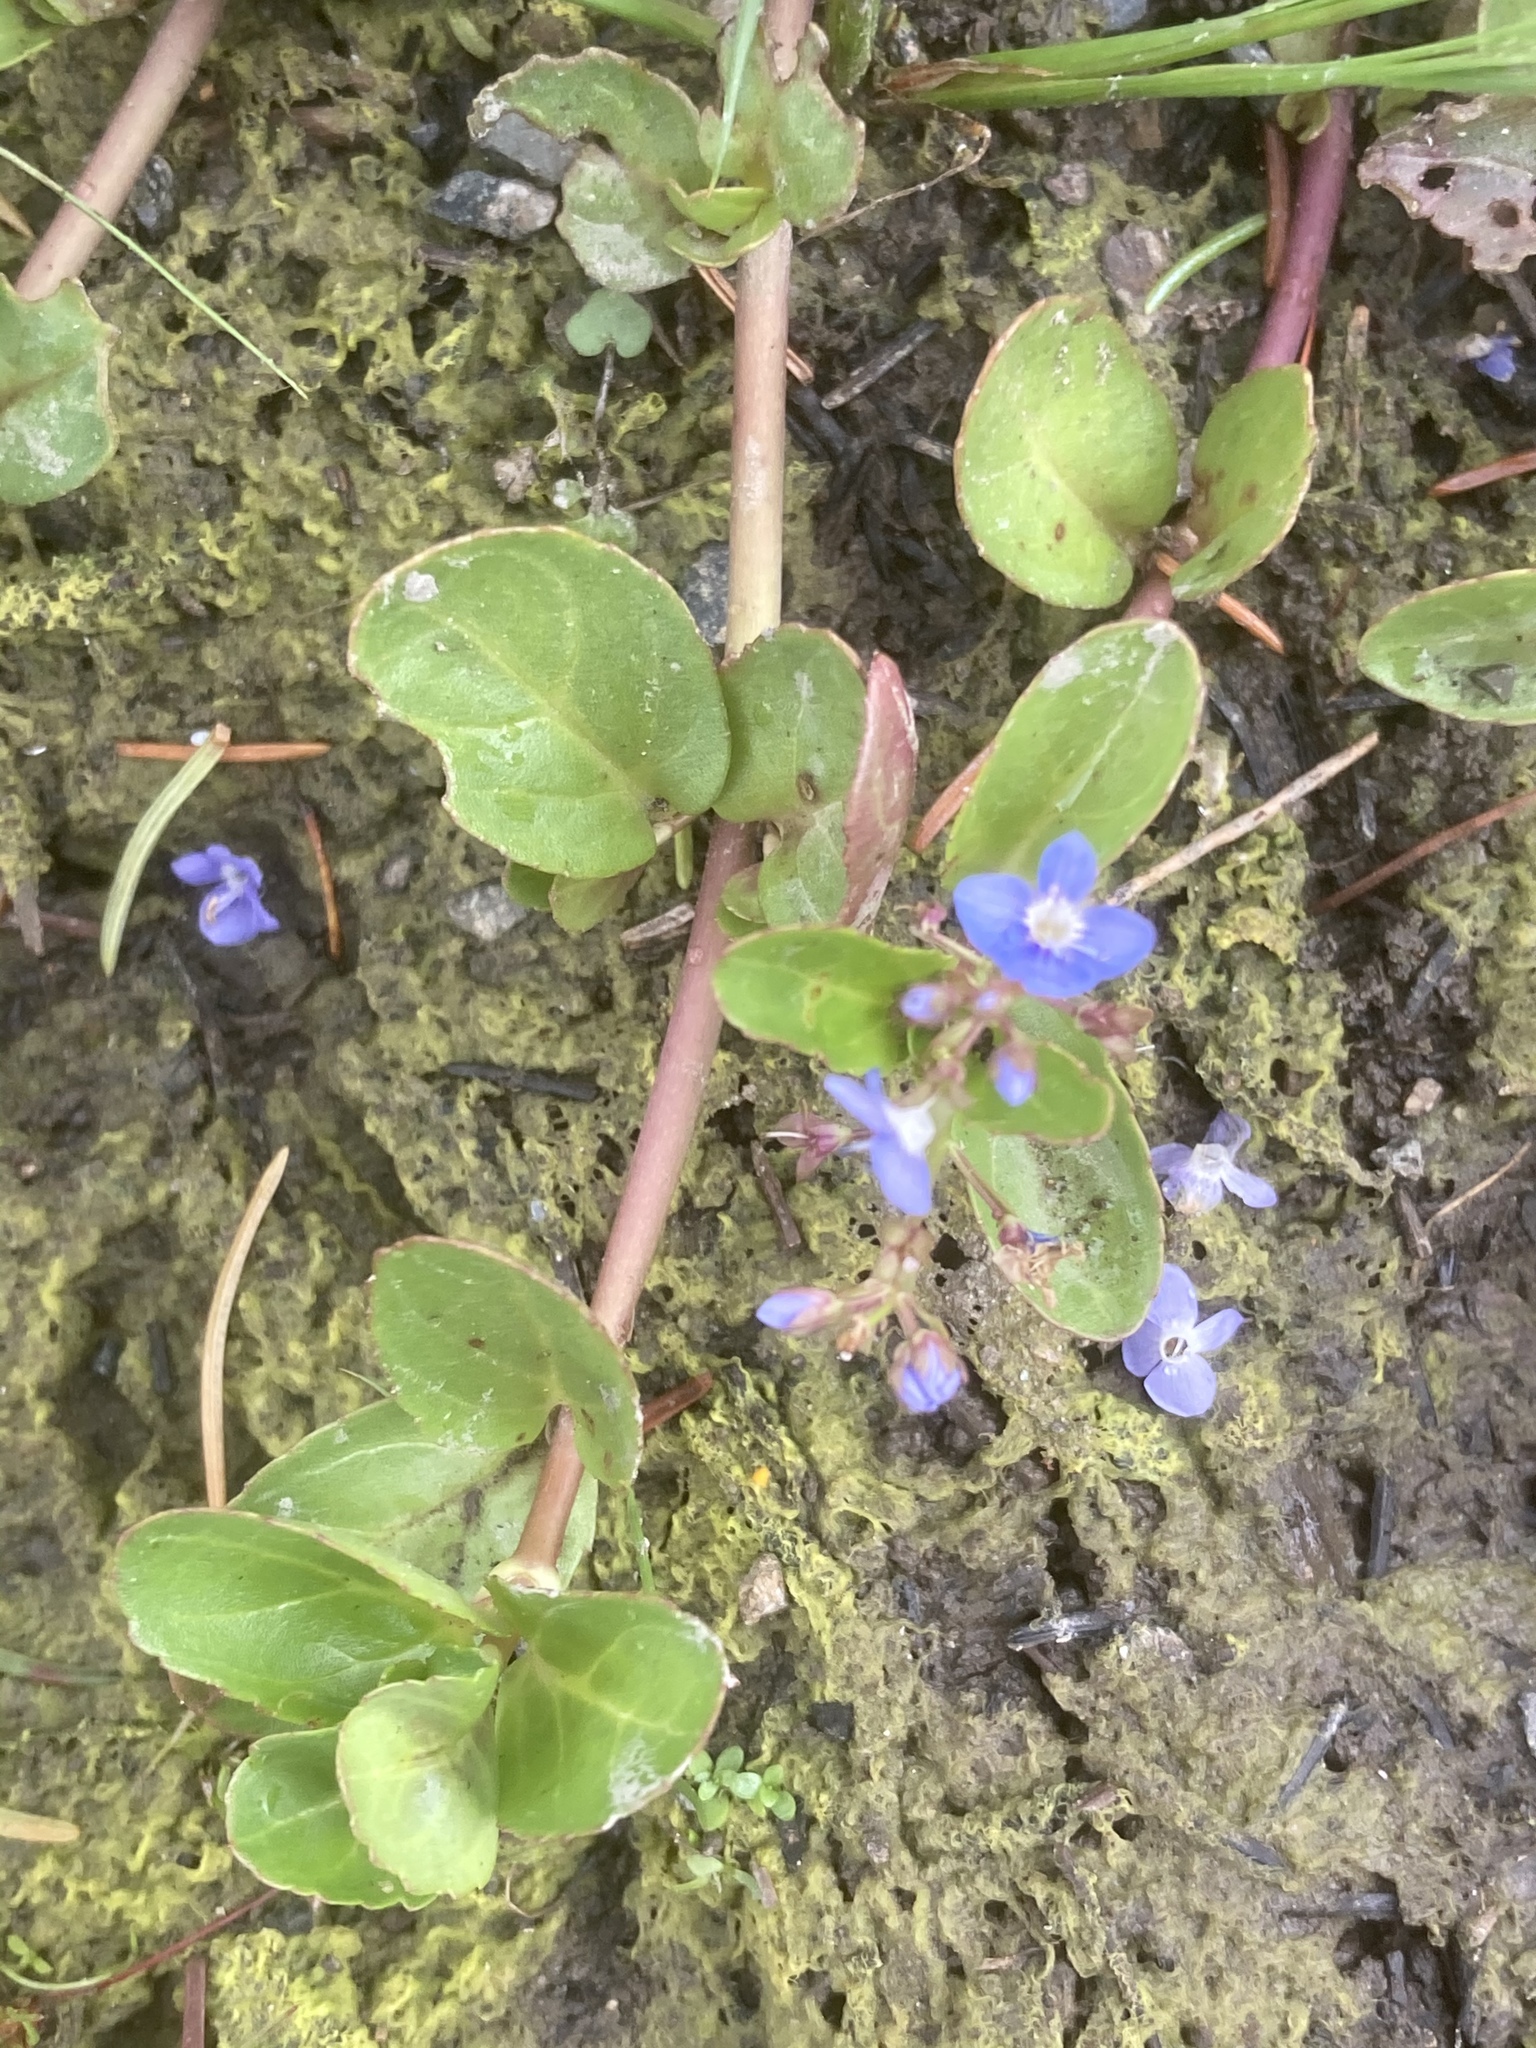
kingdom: Plantae
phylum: Tracheophyta
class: Magnoliopsida
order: Lamiales
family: Plantaginaceae
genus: Veronica
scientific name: Veronica beccabunga
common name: Brooklime
